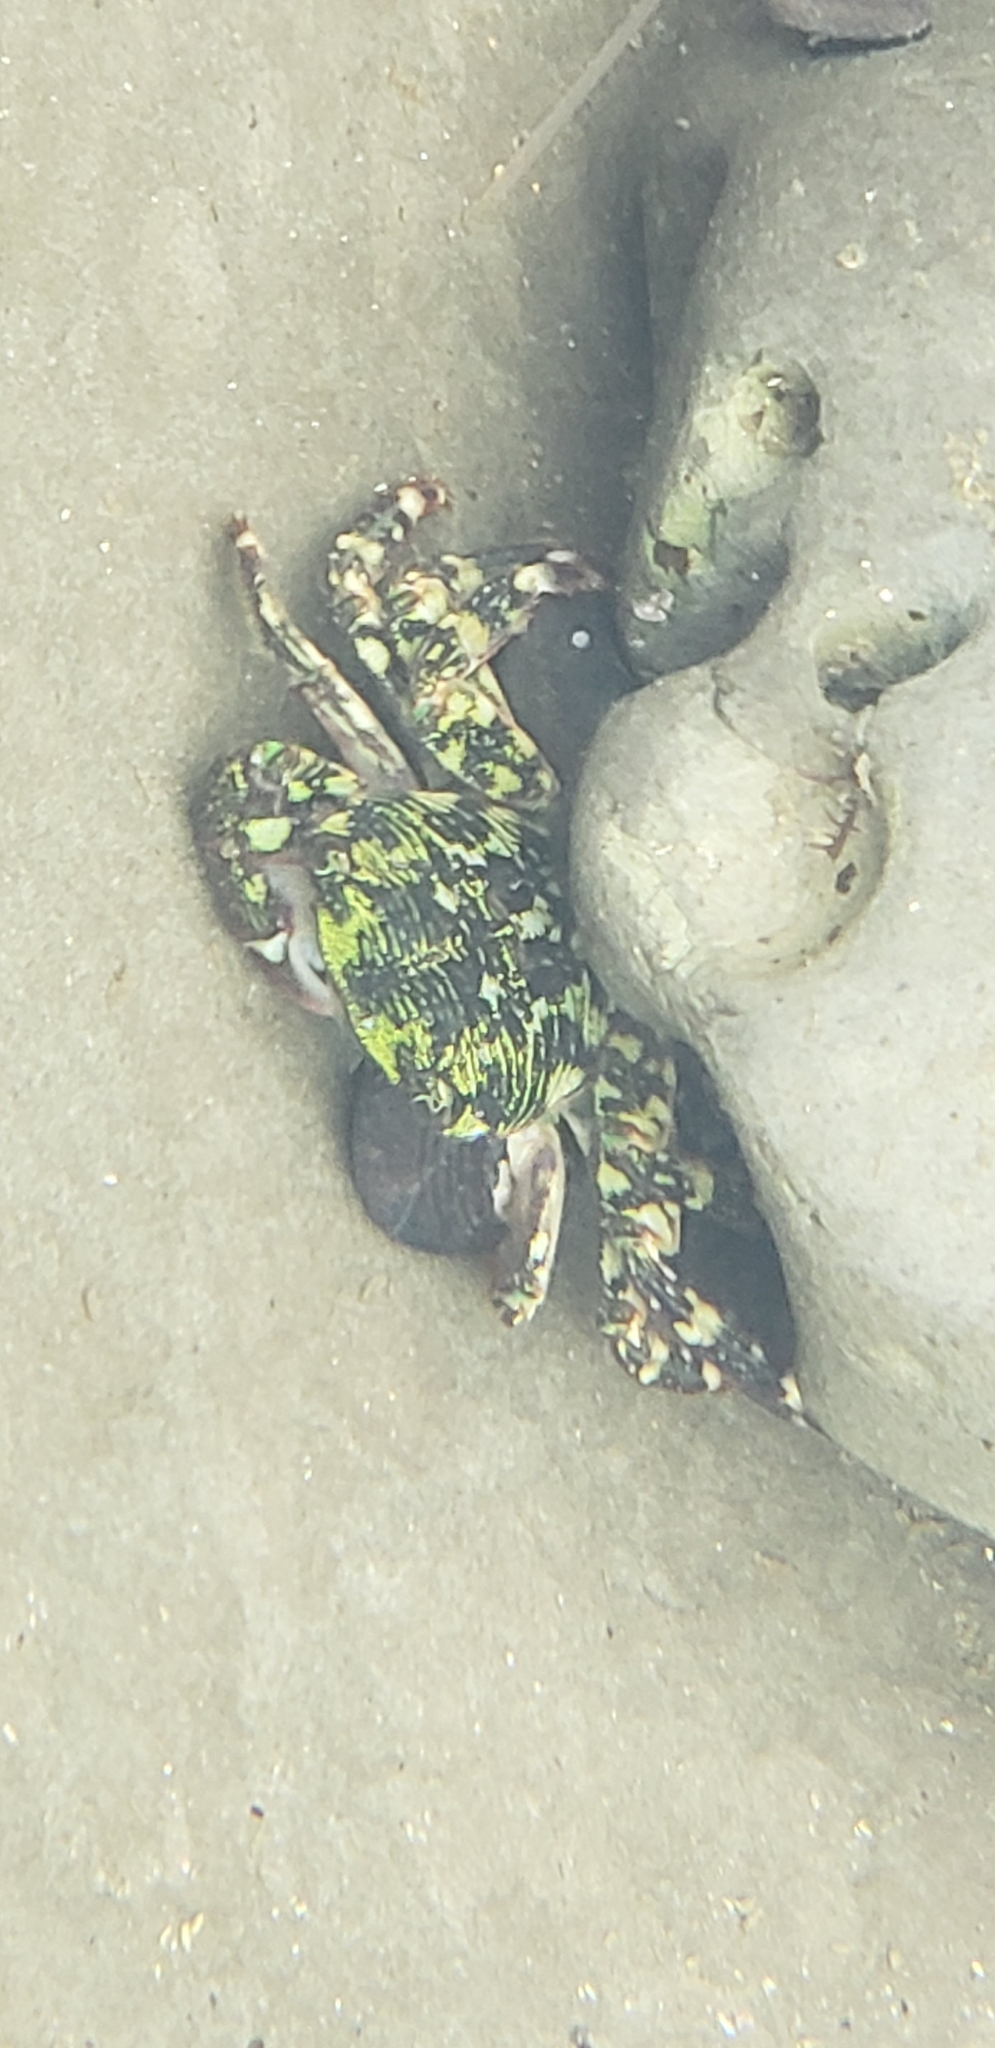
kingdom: Animalia
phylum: Arthropoda
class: Malacostraca
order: Decapoda
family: Grapsidae
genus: Pachygrapsus
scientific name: Pachygrapsus crassipes
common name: Striped shore crab
